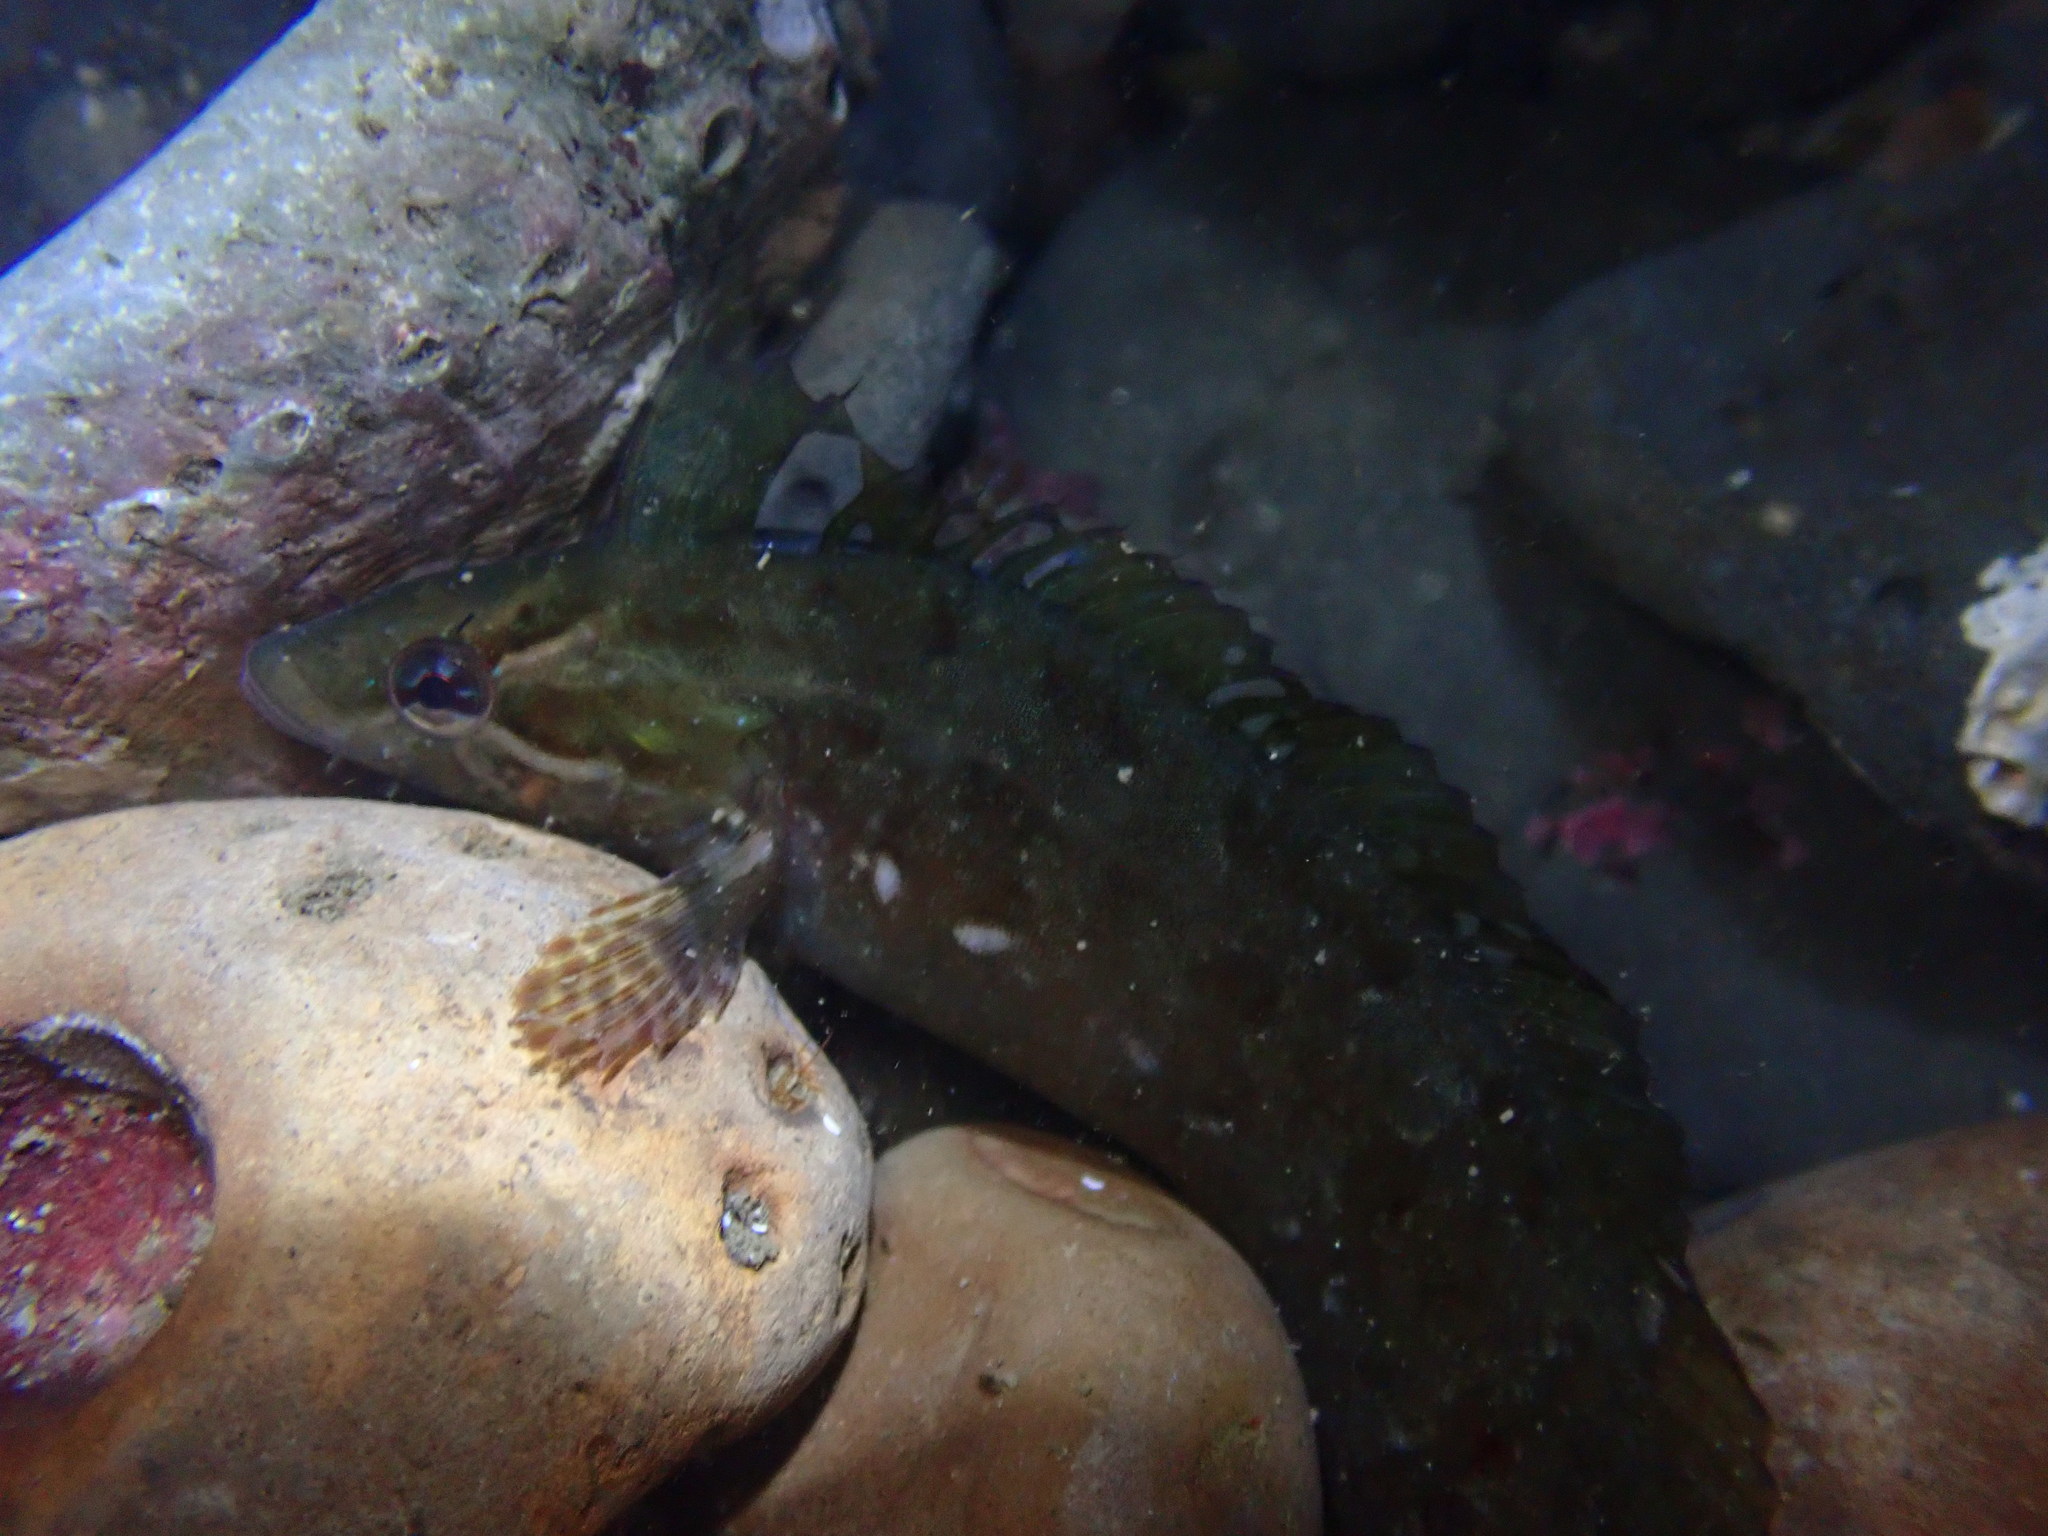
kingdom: Animalia
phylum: Chordata
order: Perciformes
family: Clinidae
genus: Gibbonsia
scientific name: Gibbonsia metzi
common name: Striped kelpfish
